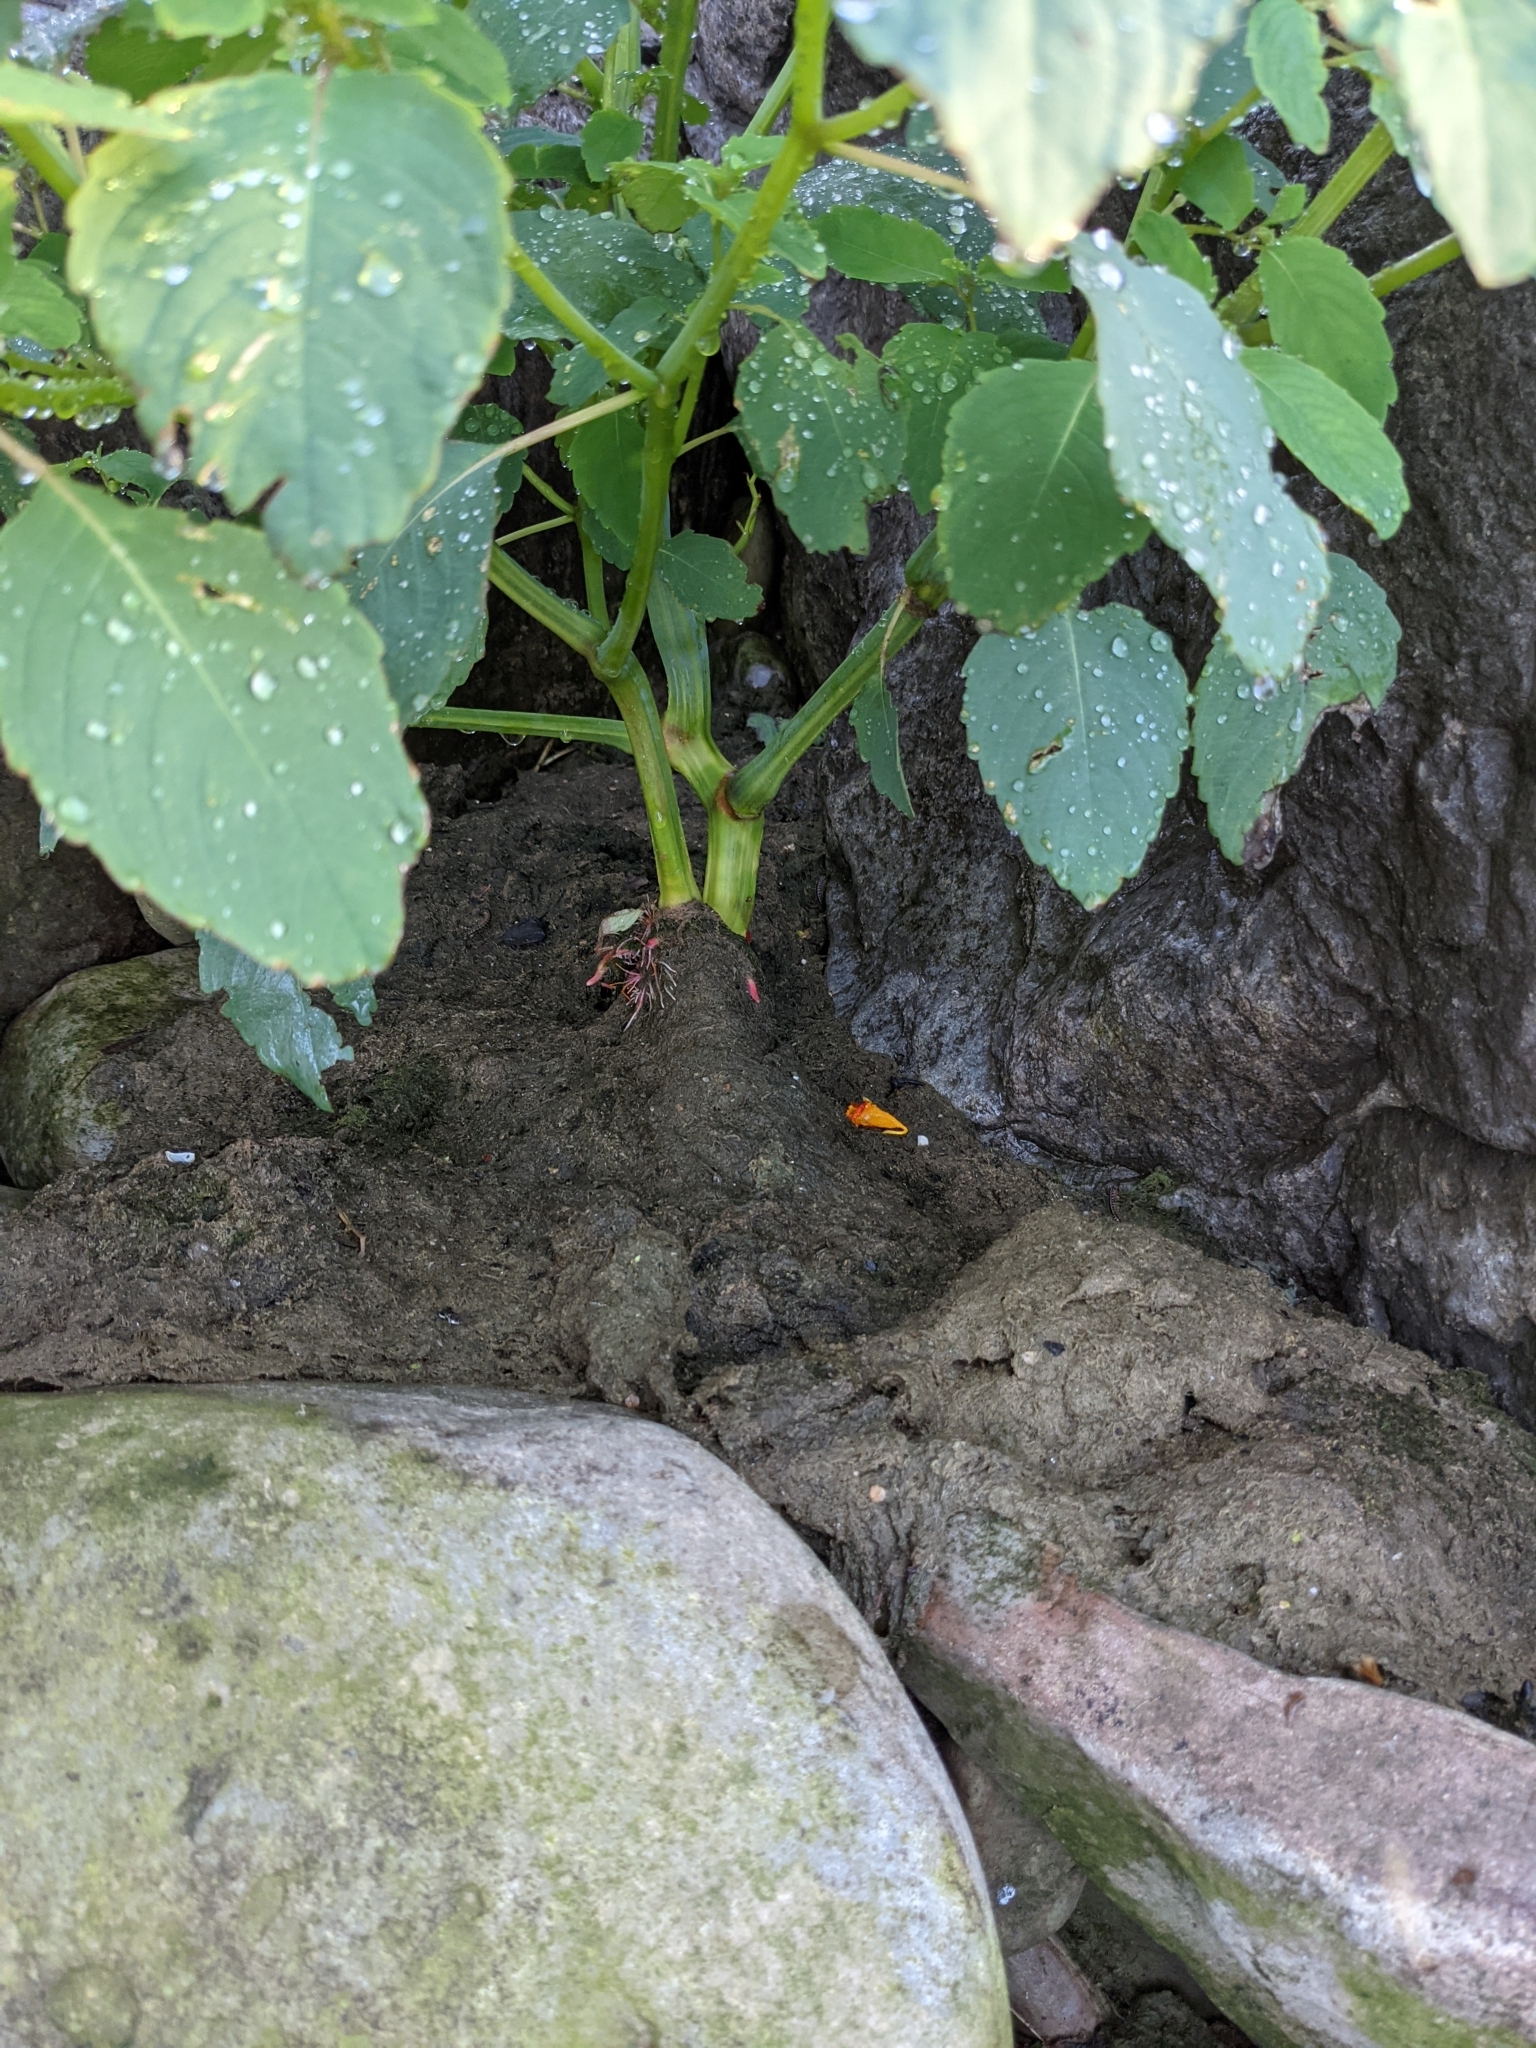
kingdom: Plantae
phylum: Tracheophyta
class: Magnoliopsida
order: Ericales
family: Balsaminaceae
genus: Impatiens
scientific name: Impatiens capensis
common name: Orange balsam
